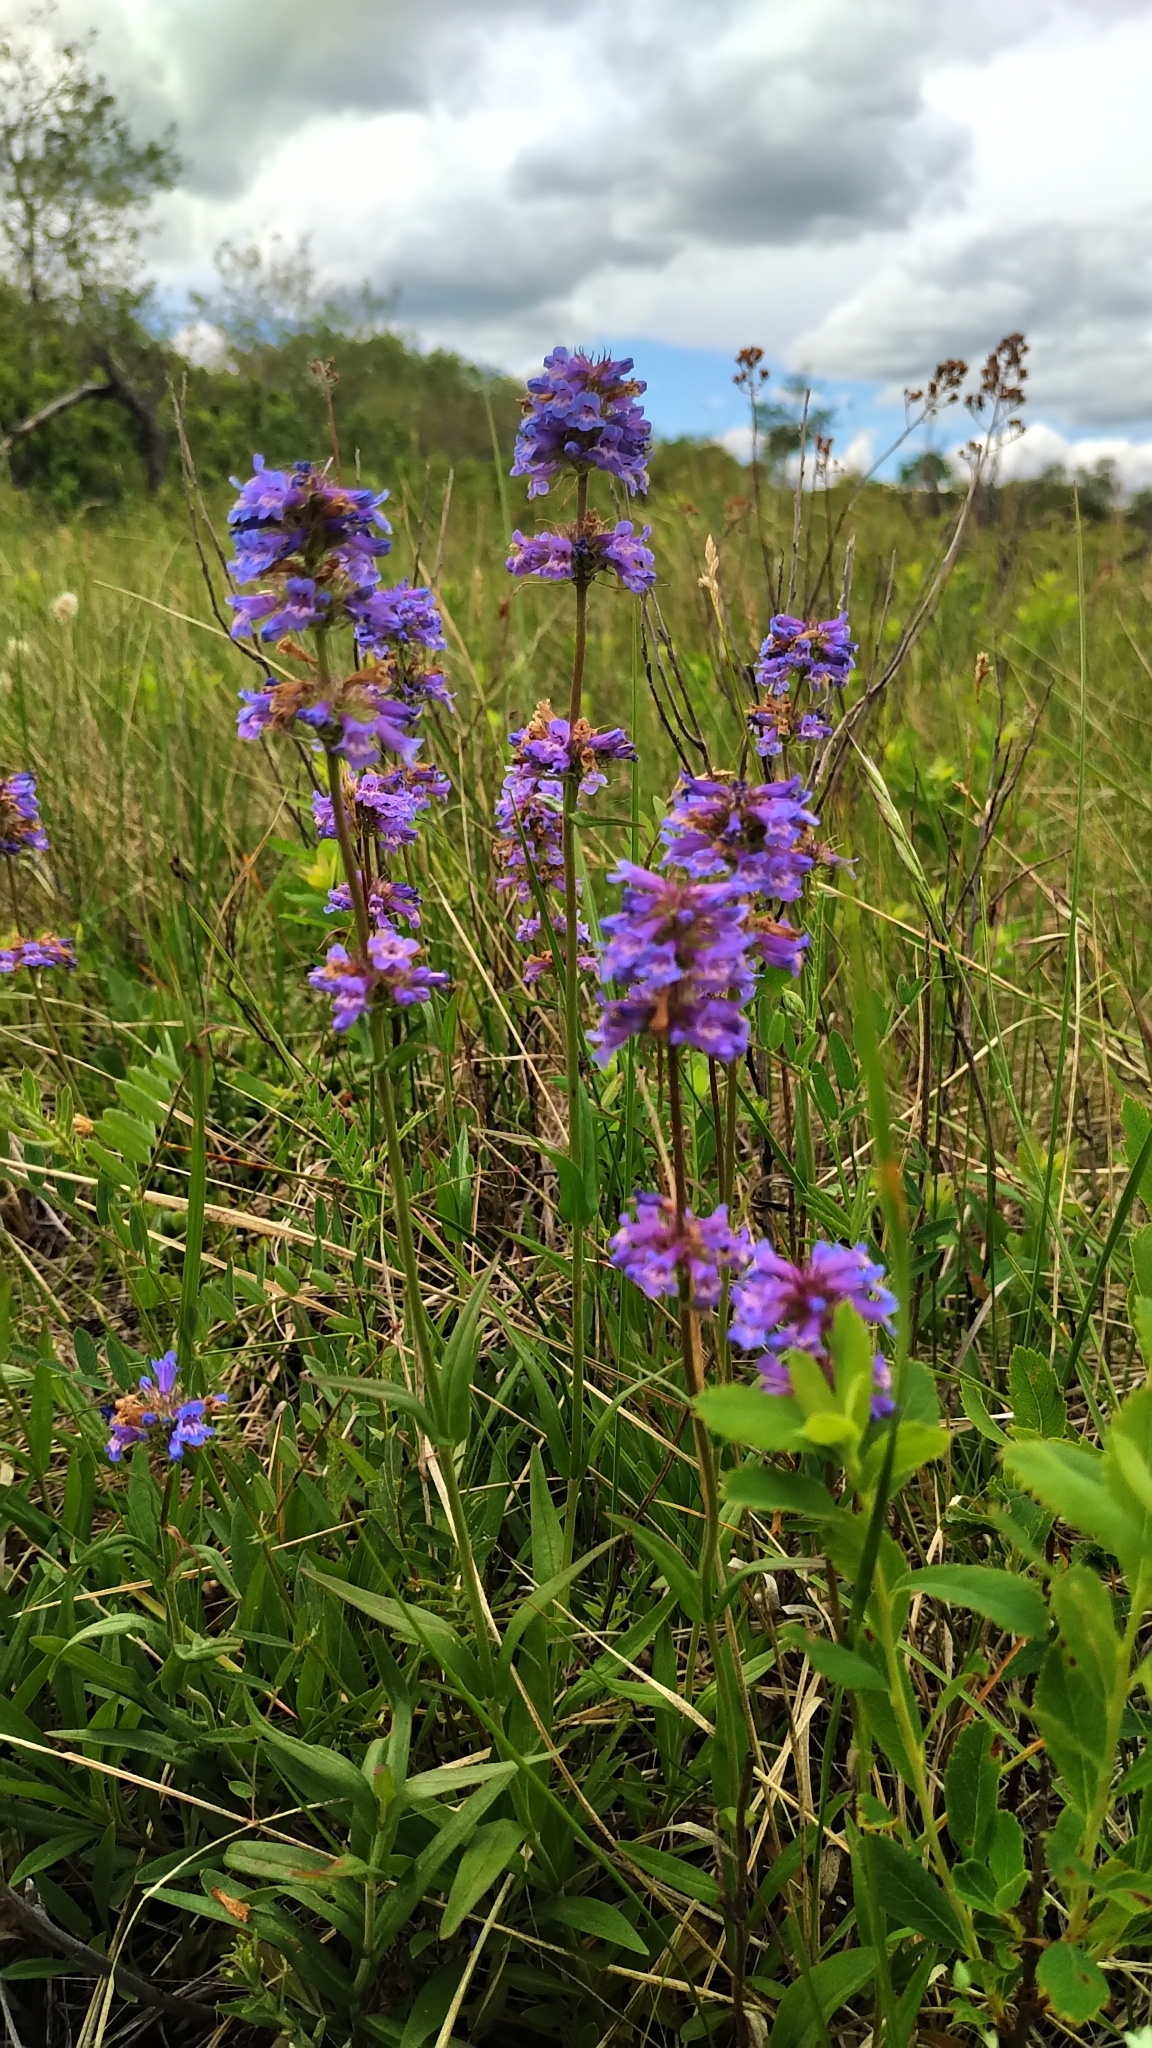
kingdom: Plantae
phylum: Tracheophyta
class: Magnoliopsida
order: Lamiales
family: Plantaginaceae
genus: Penstemon
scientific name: Penstemon procerus
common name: Small-flower penstemon
